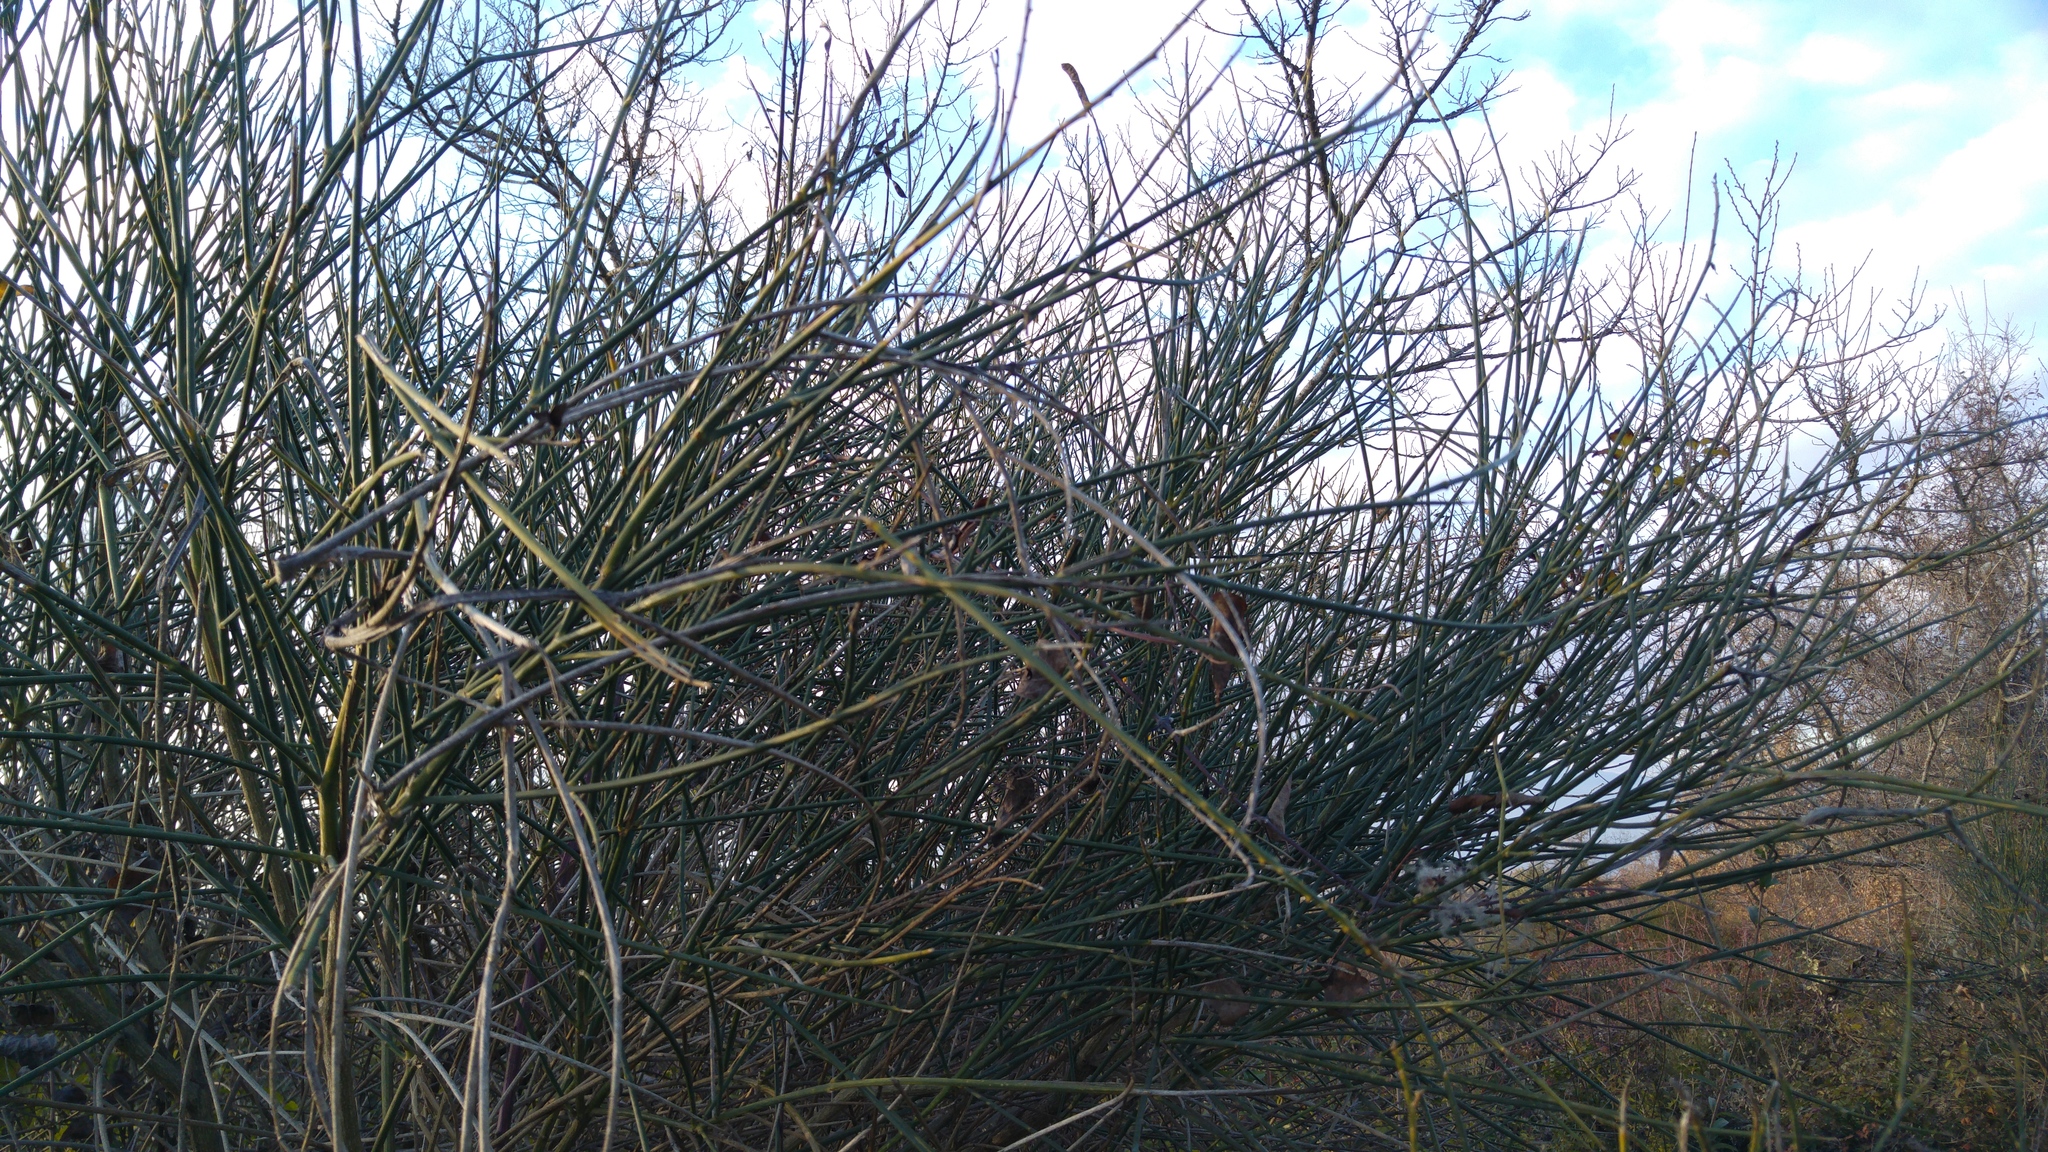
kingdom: Plantae
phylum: Tracheophyta
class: Magnoliopsida
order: Fabales
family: Fabaceae
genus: Spartium
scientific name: Spartium junceum
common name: Spanish broom
